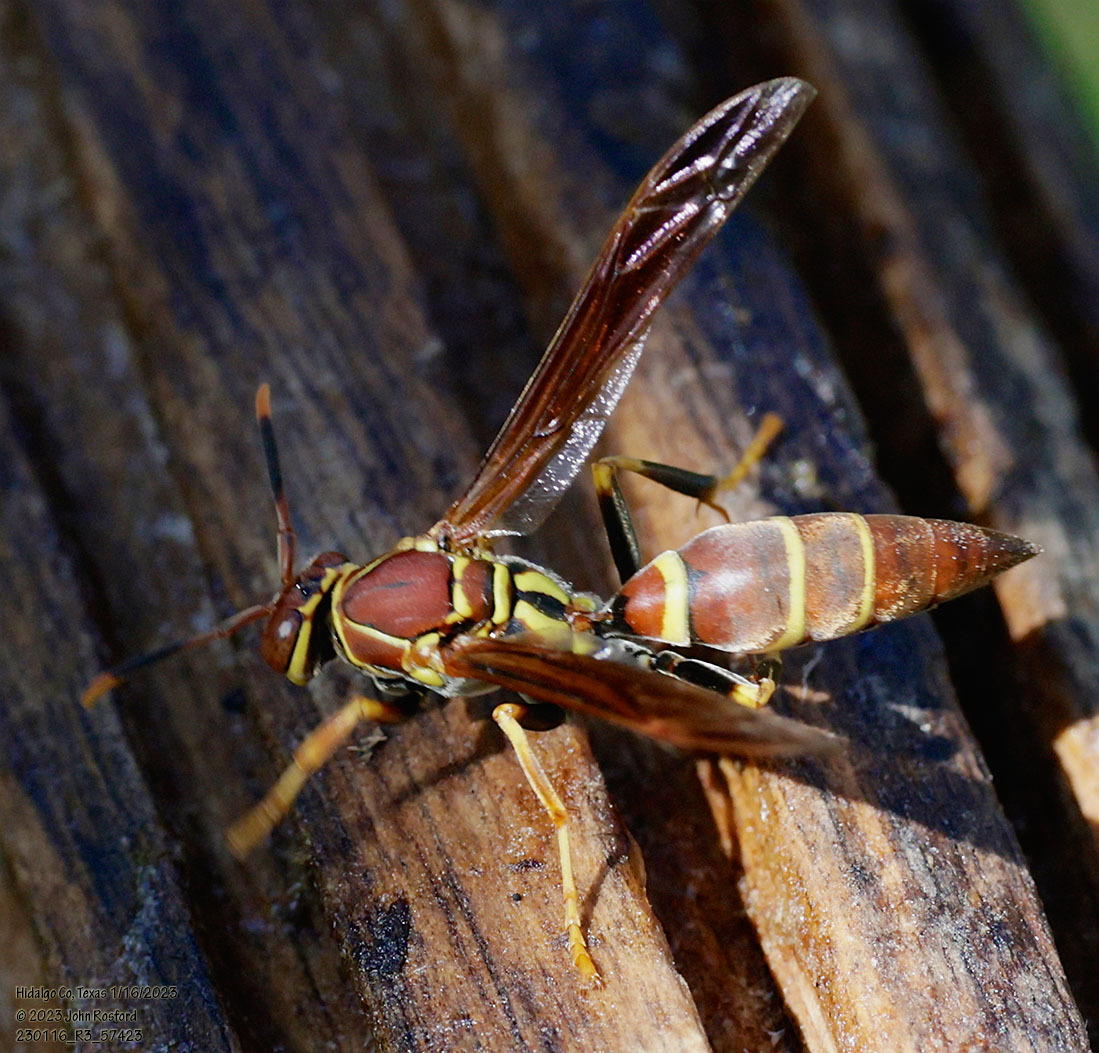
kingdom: Animalia
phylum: Arthropoda
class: Insecta
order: Hymenoptera
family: Eumenidae
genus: Polistes
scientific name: Polistes instabilis
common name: Unstable paper wasp
